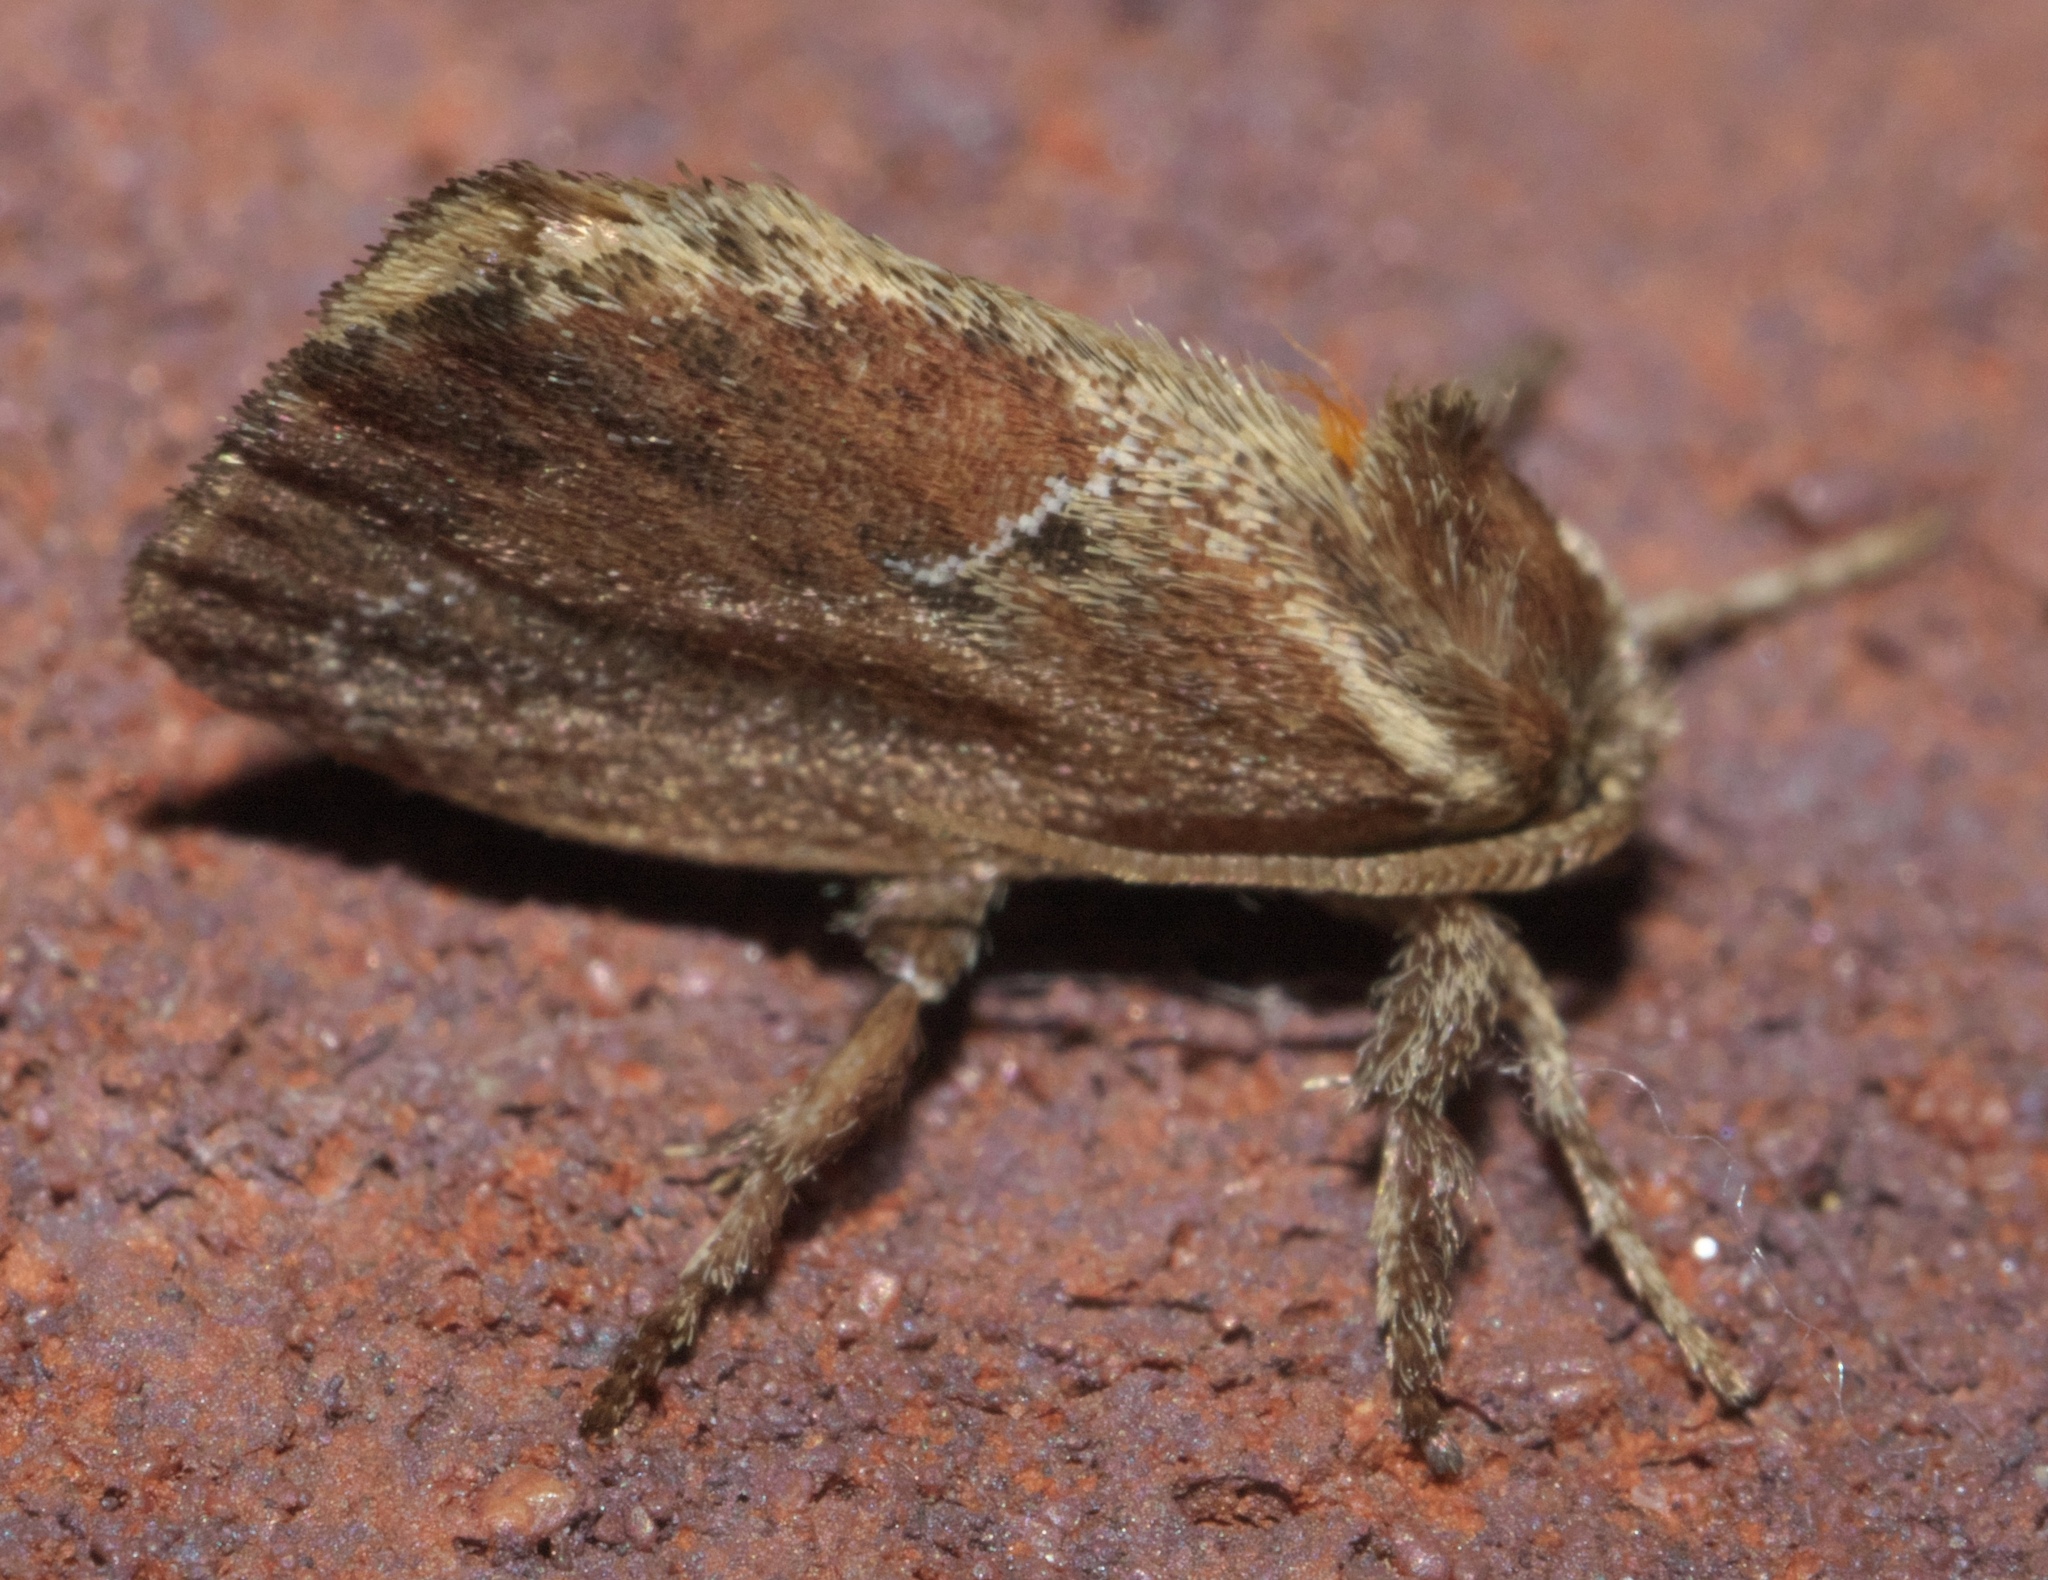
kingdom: Animalia
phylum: Arthropoda
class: Insecta
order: Lepidoptera
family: Limacodidae
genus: Adoneta
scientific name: Adoneta spinuloides
